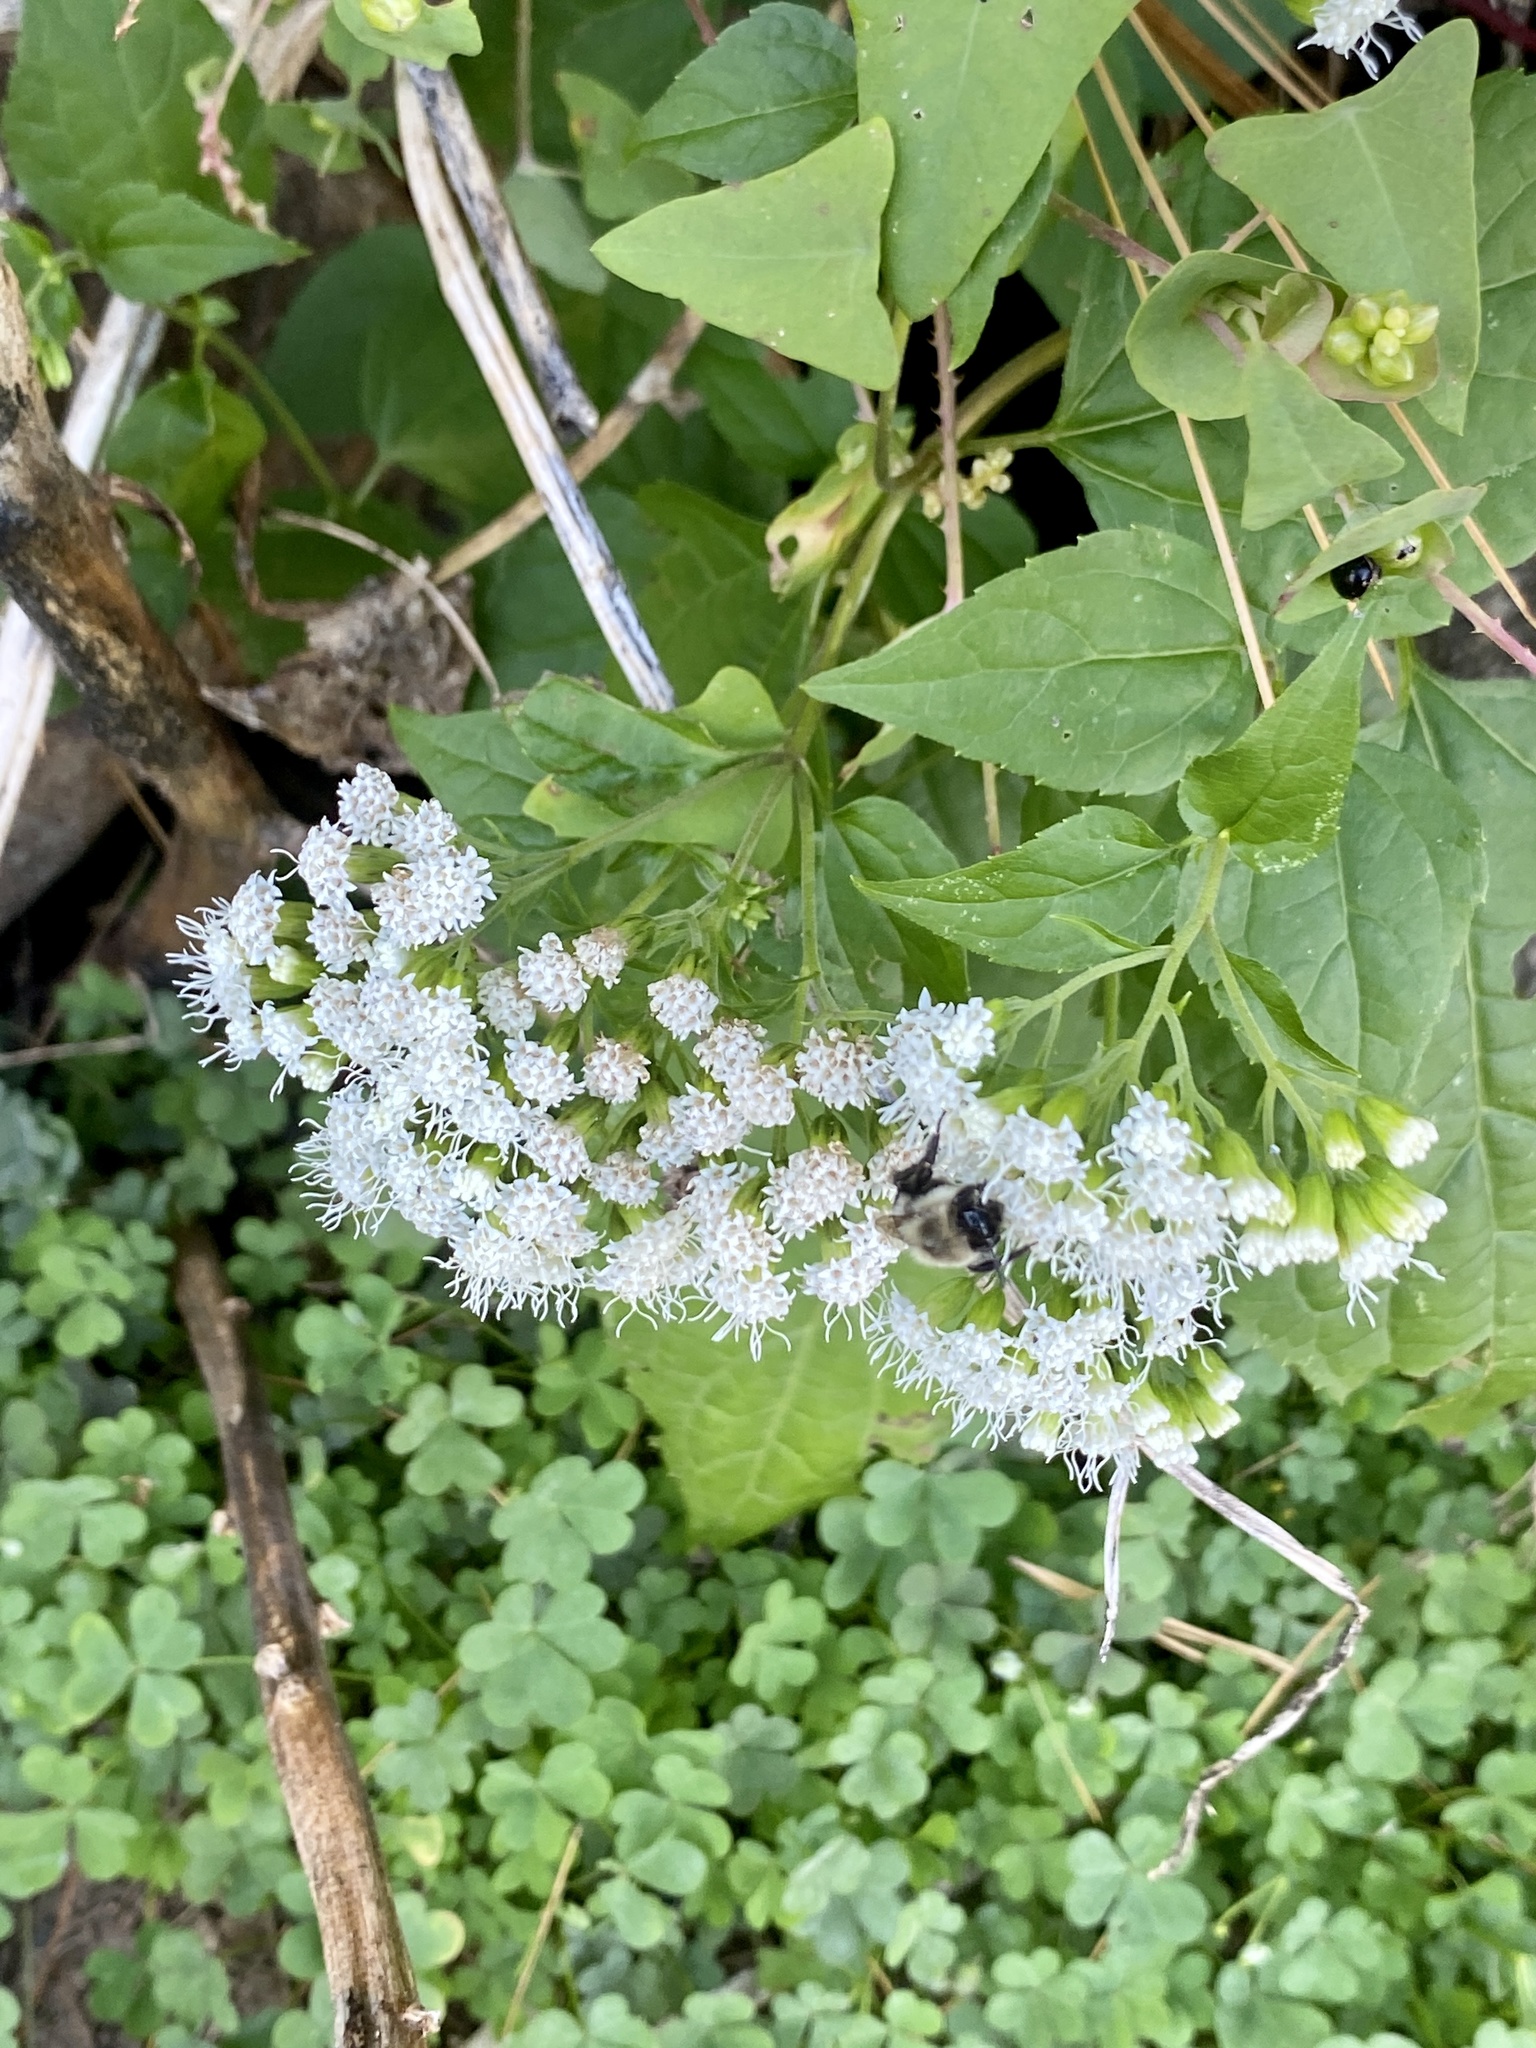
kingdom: Plantae
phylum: Tracheophyta
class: Magnoliopsida
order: Asterales
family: Asteraceae
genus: Ageratina
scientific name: Ageratina altissima
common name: White snakeroot
